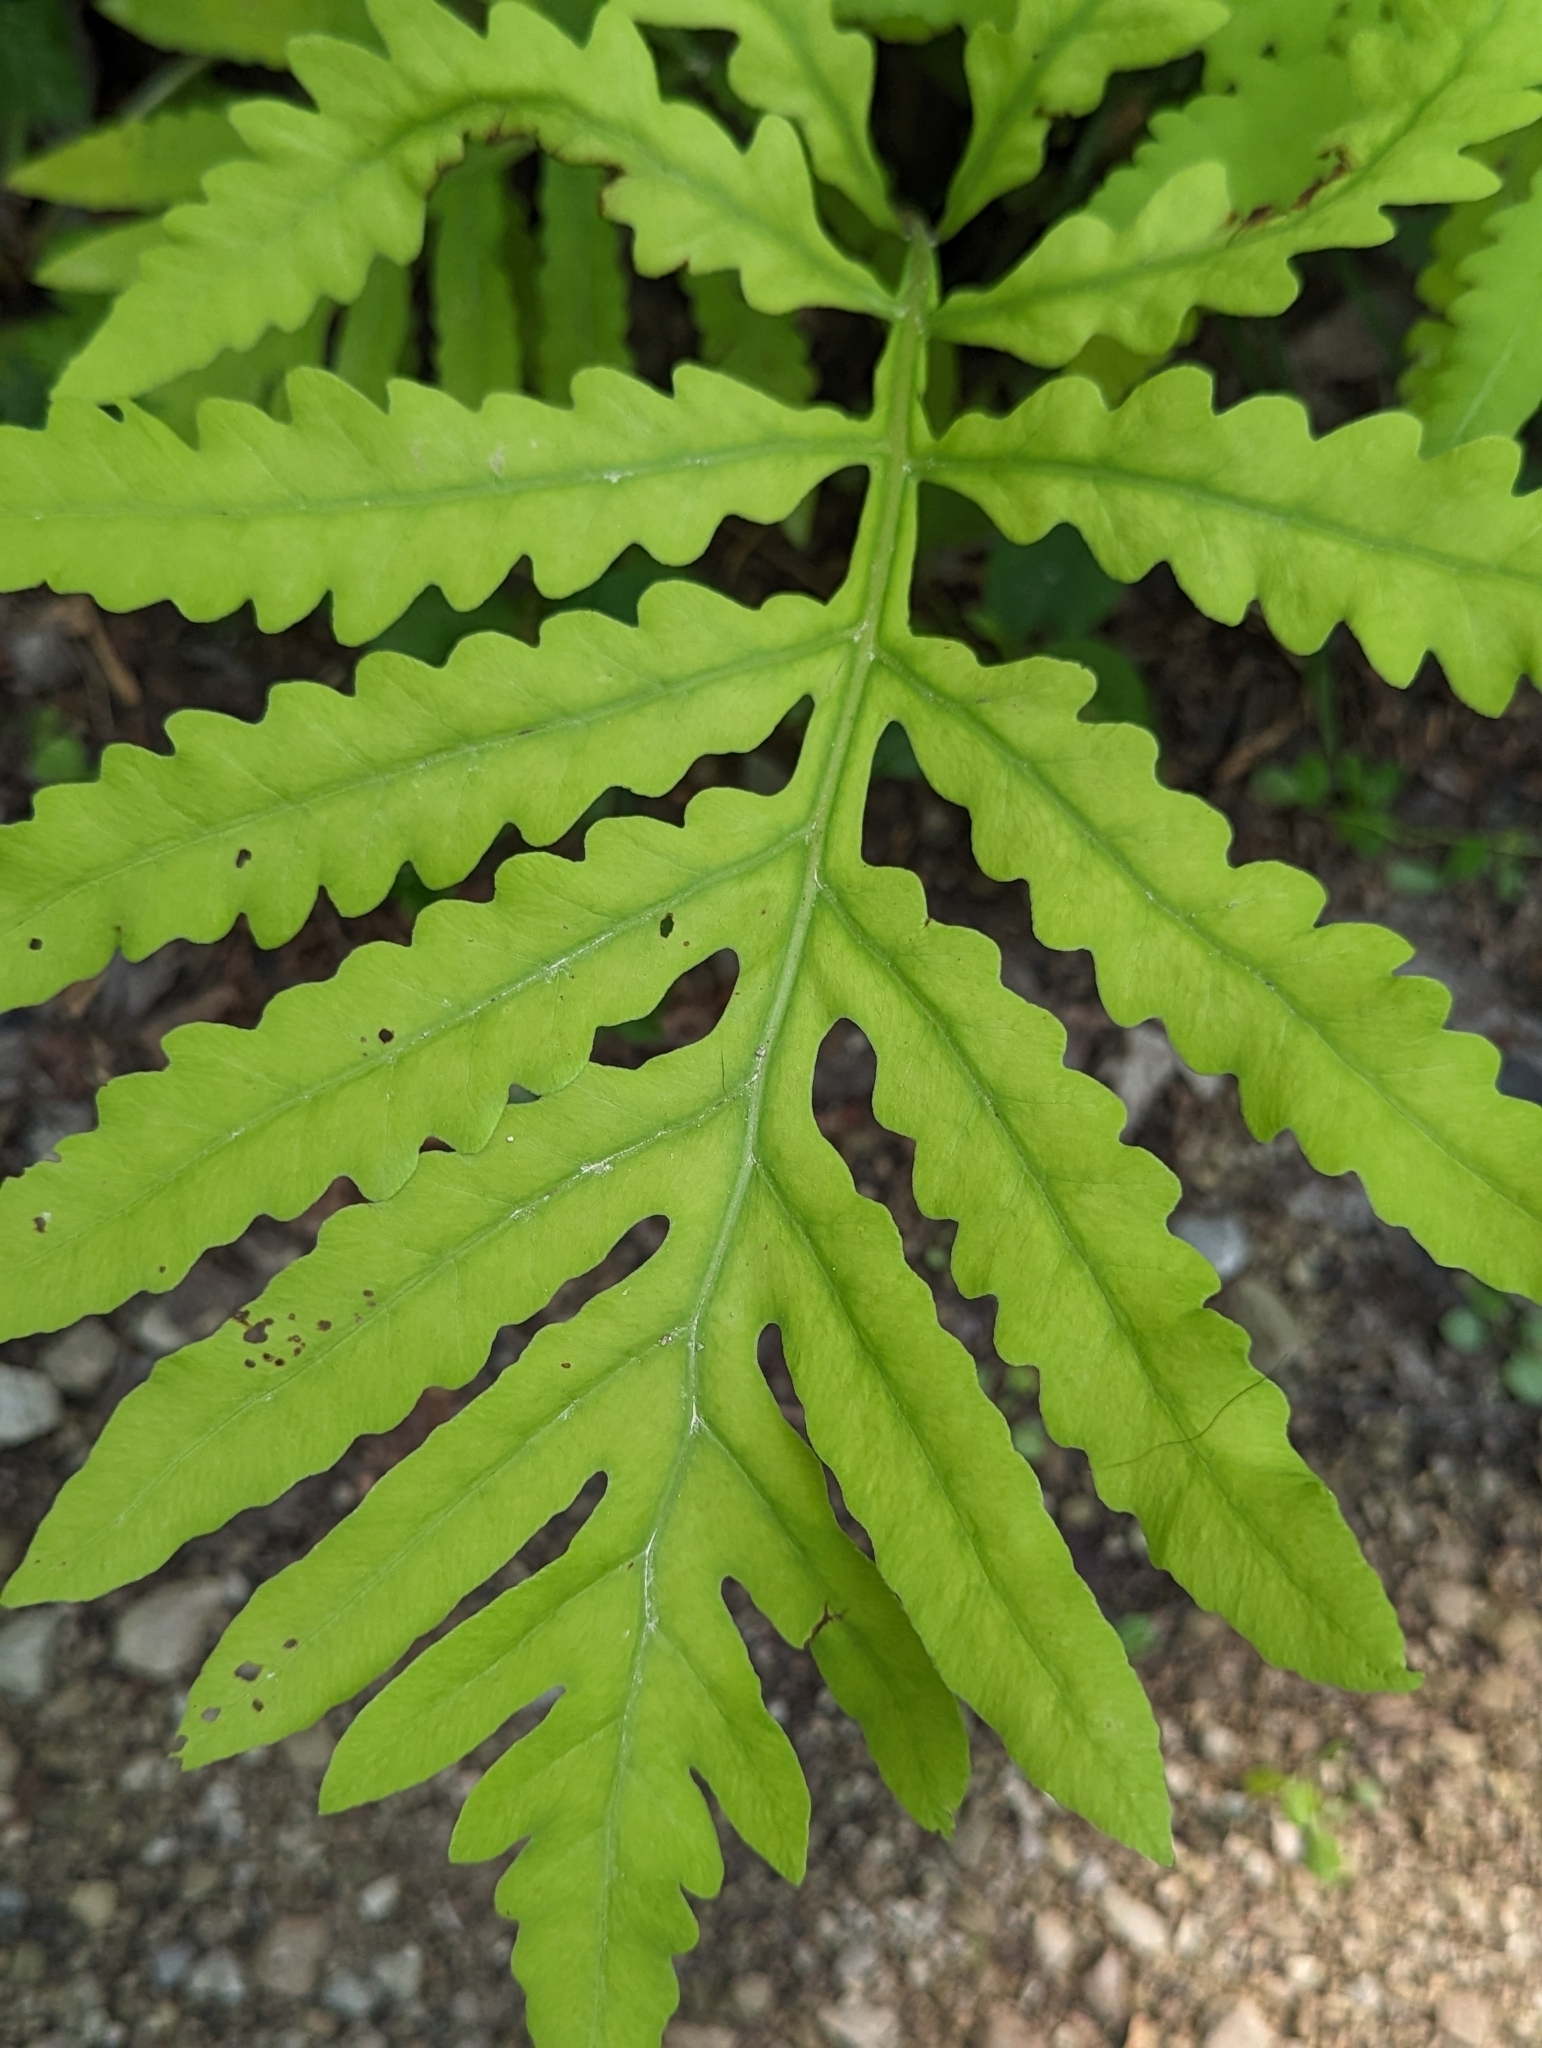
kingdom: Plantae
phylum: Tracheophyta
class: Polypodiopsida
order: Polypodiales
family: Onocleaceae
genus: Onoclea
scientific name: Onoclea sensibilis
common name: Sensitive fern
